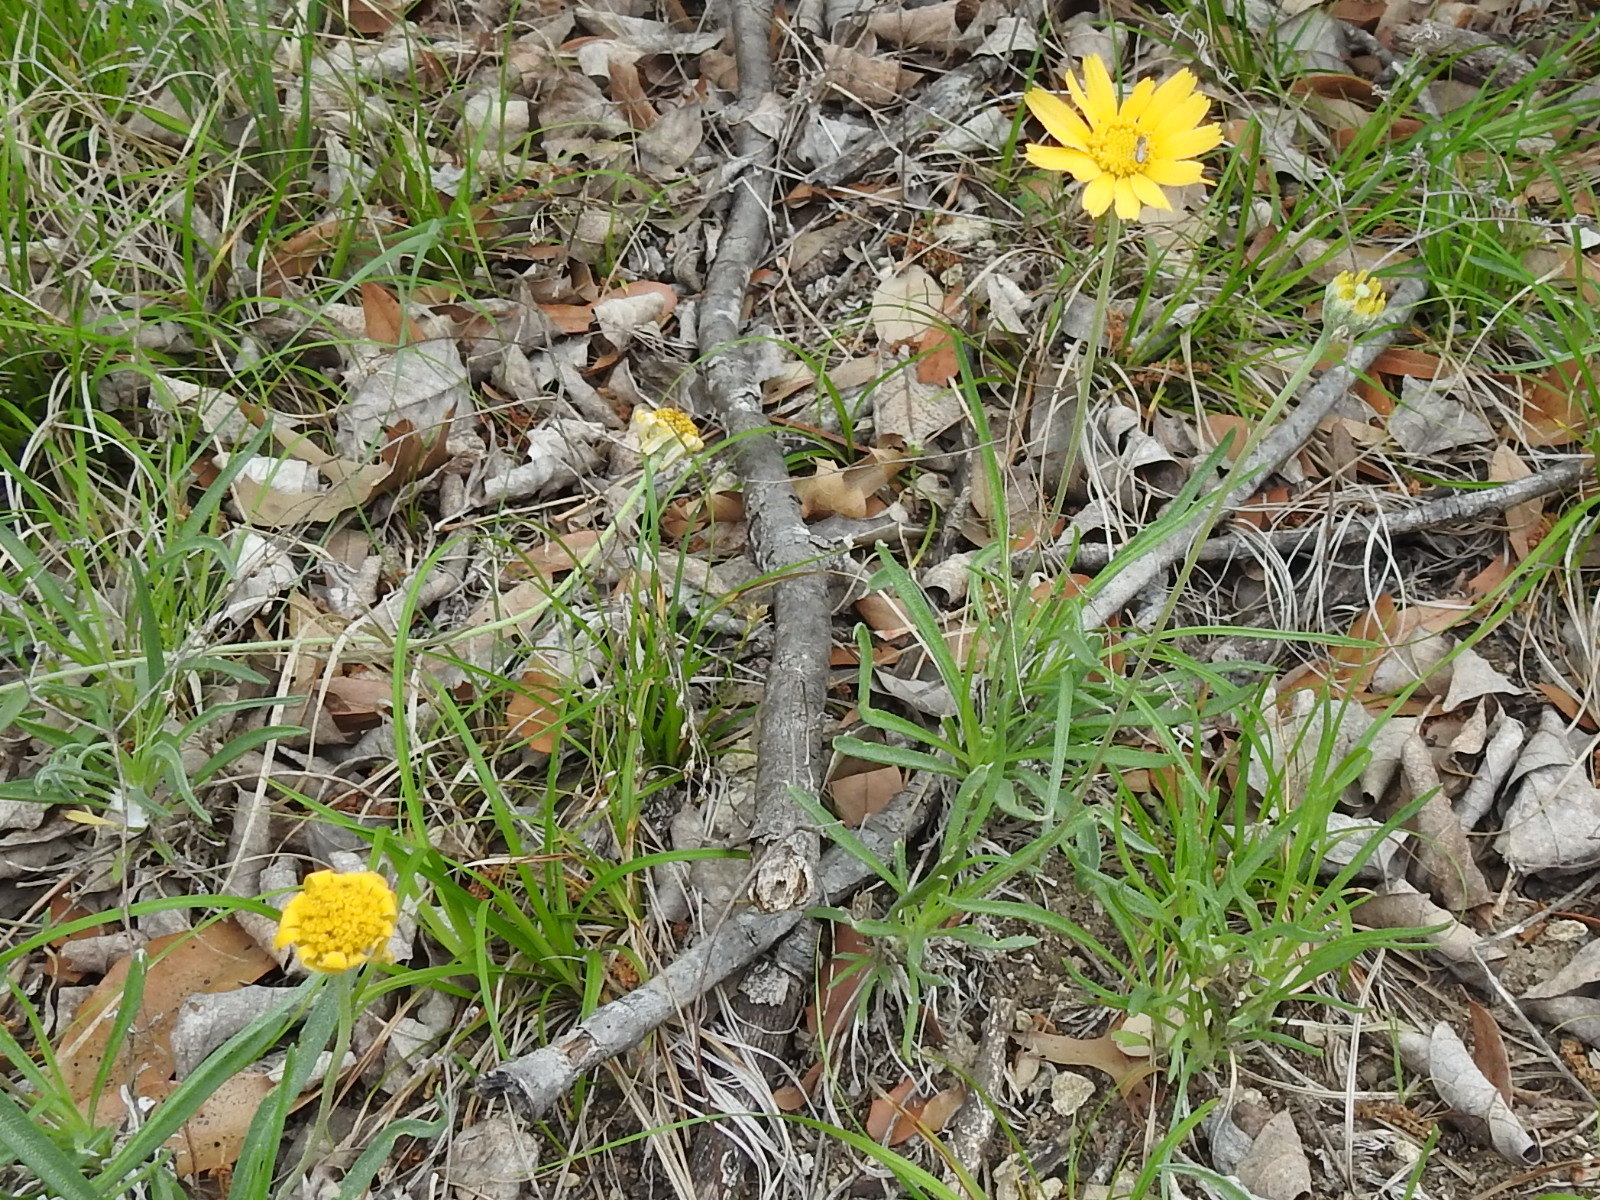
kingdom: Plantae
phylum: Tracheophyta
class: Magnoliopsida
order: Asterales
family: Asteraceae
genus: Tetraneuris
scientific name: Tetraneuris scaposa
